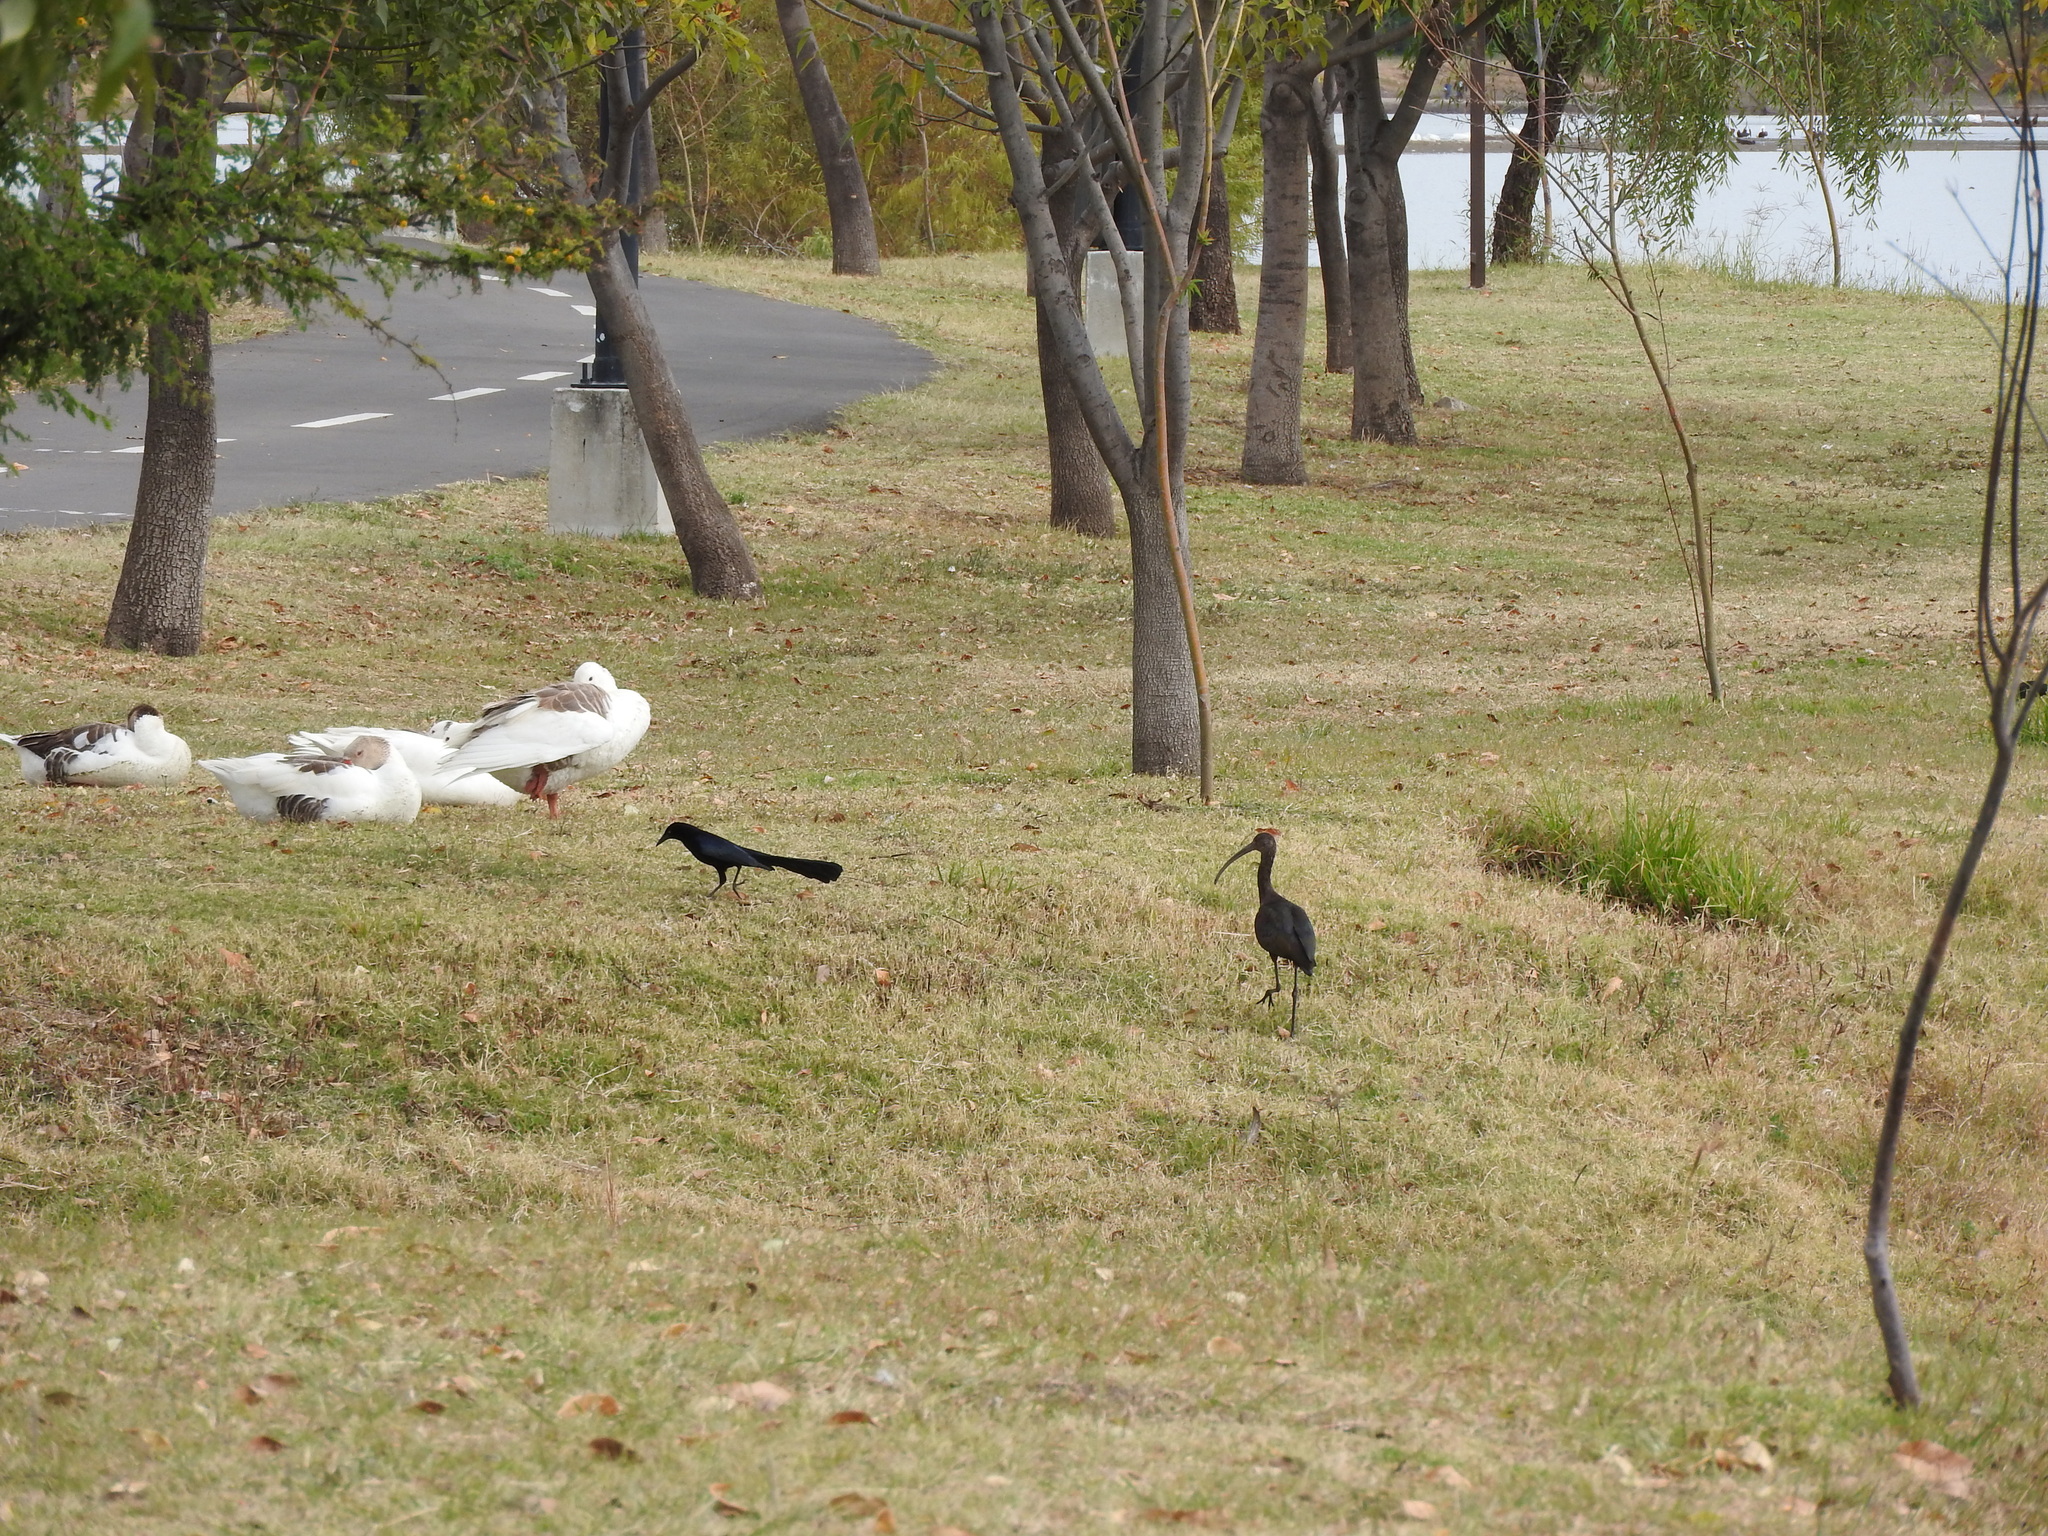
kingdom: Animalia
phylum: Chordata
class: Aves
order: Passeriformes
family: Icteridae
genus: Quiscalus
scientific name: Quiscalus mexicanus
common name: Great-tailed grackle
